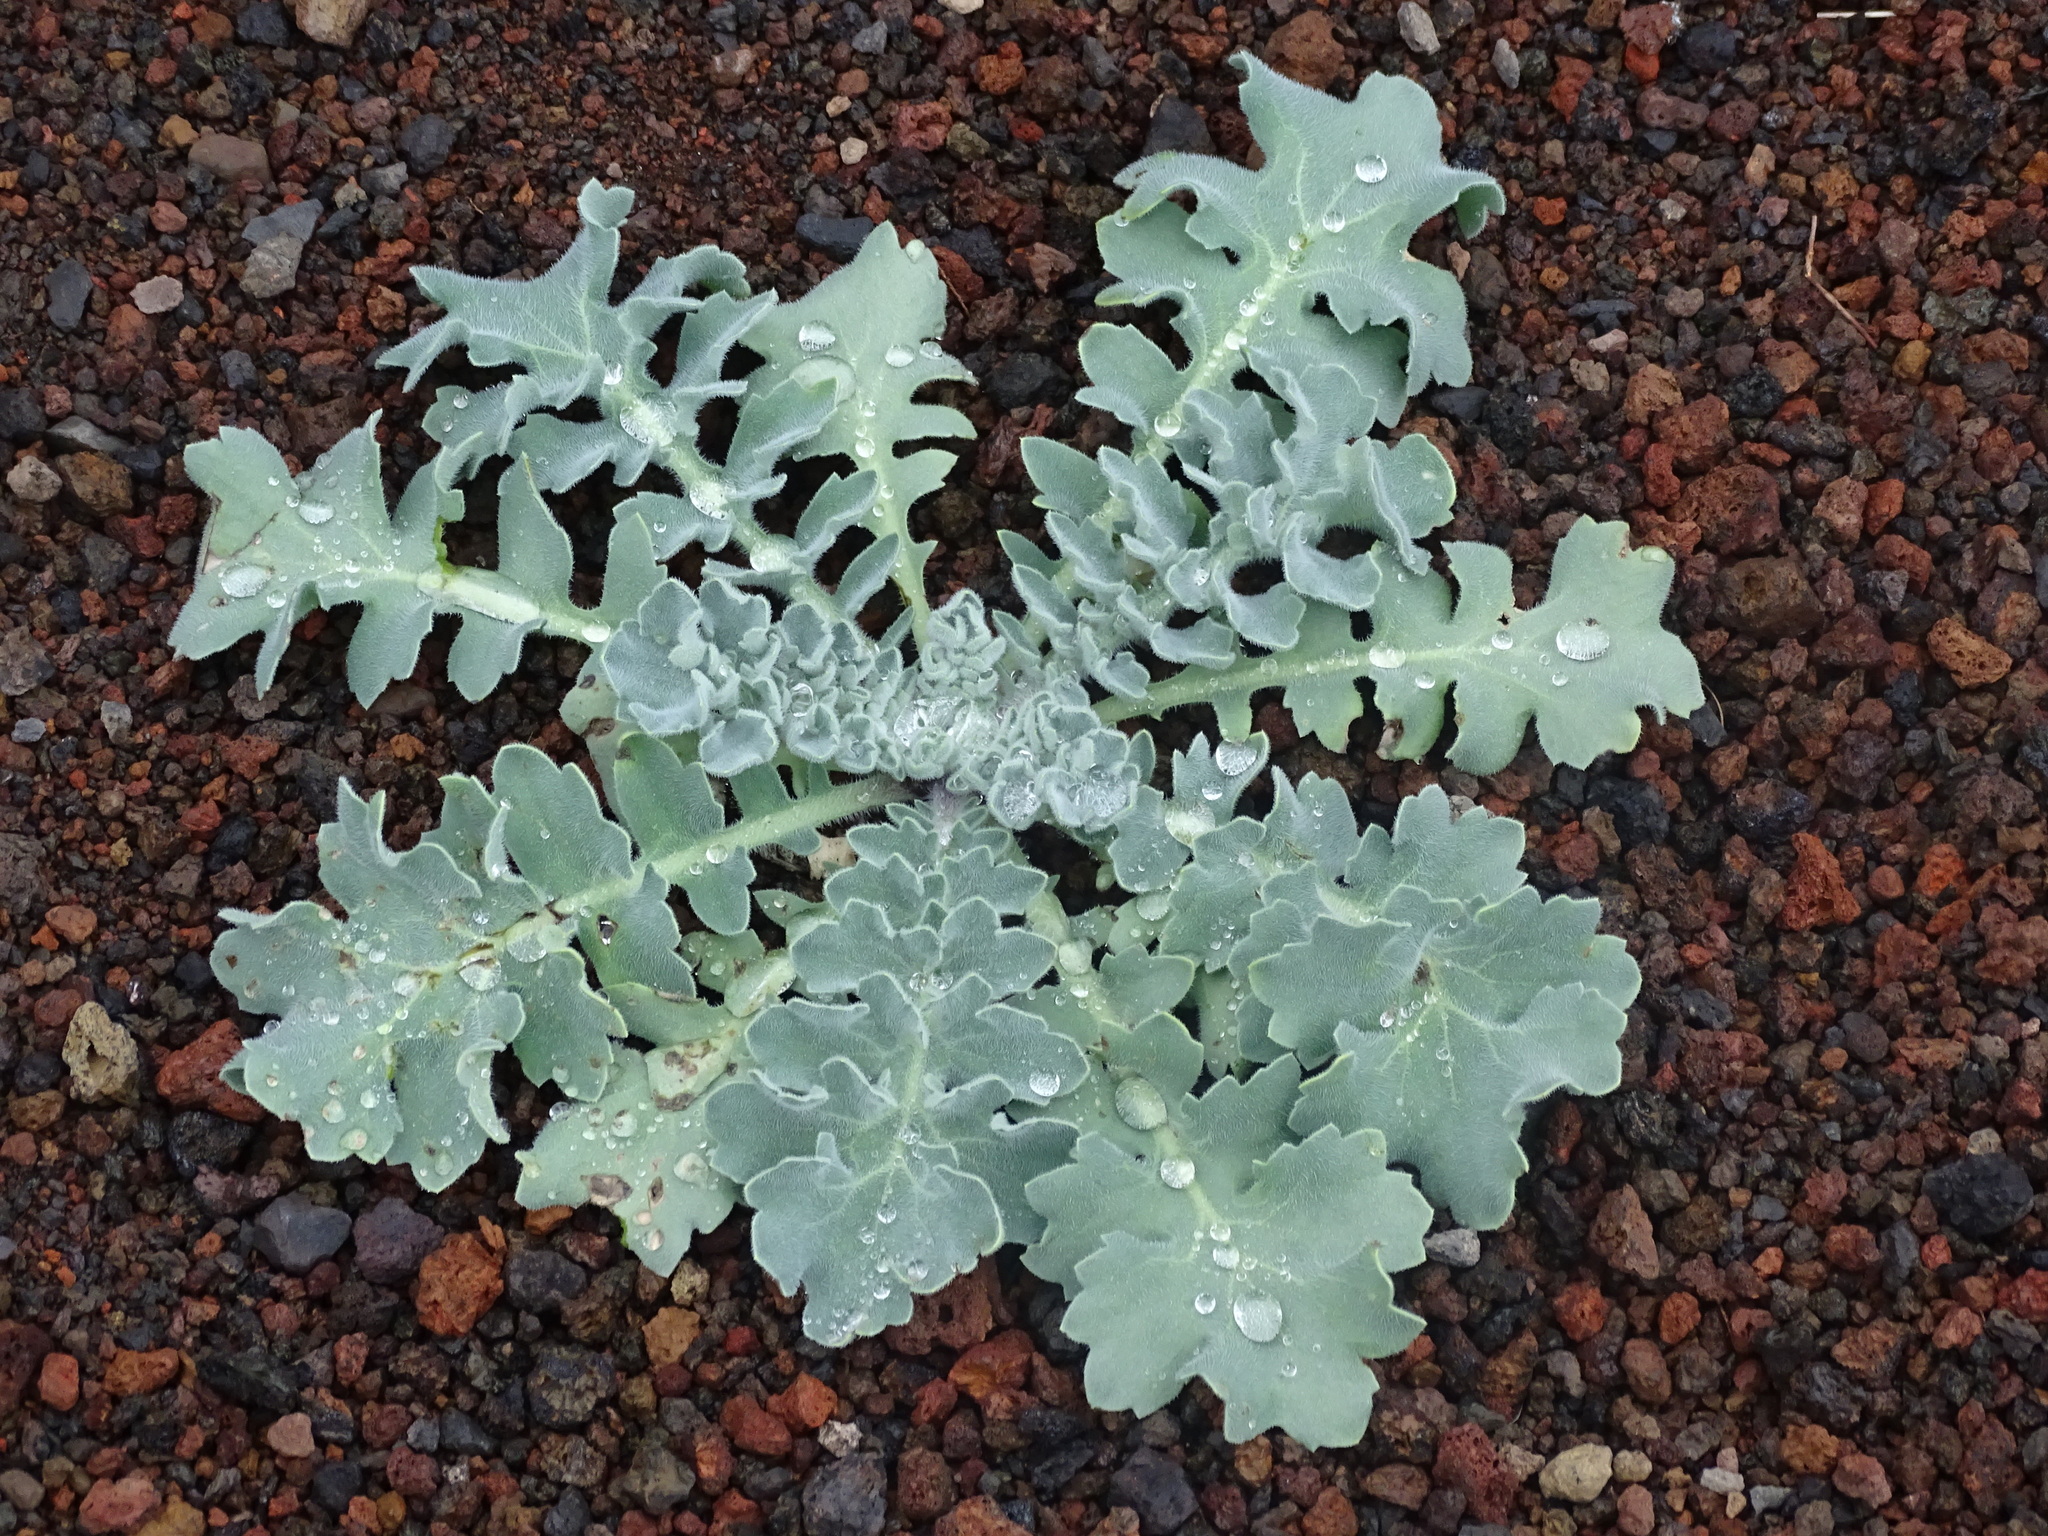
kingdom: Plantae
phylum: Tracheophyta
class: Magnoliopsida
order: Ranunculales
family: Papaveraceae
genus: Glaucium
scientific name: Glaucium flavum
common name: Yellow horned-poppy
